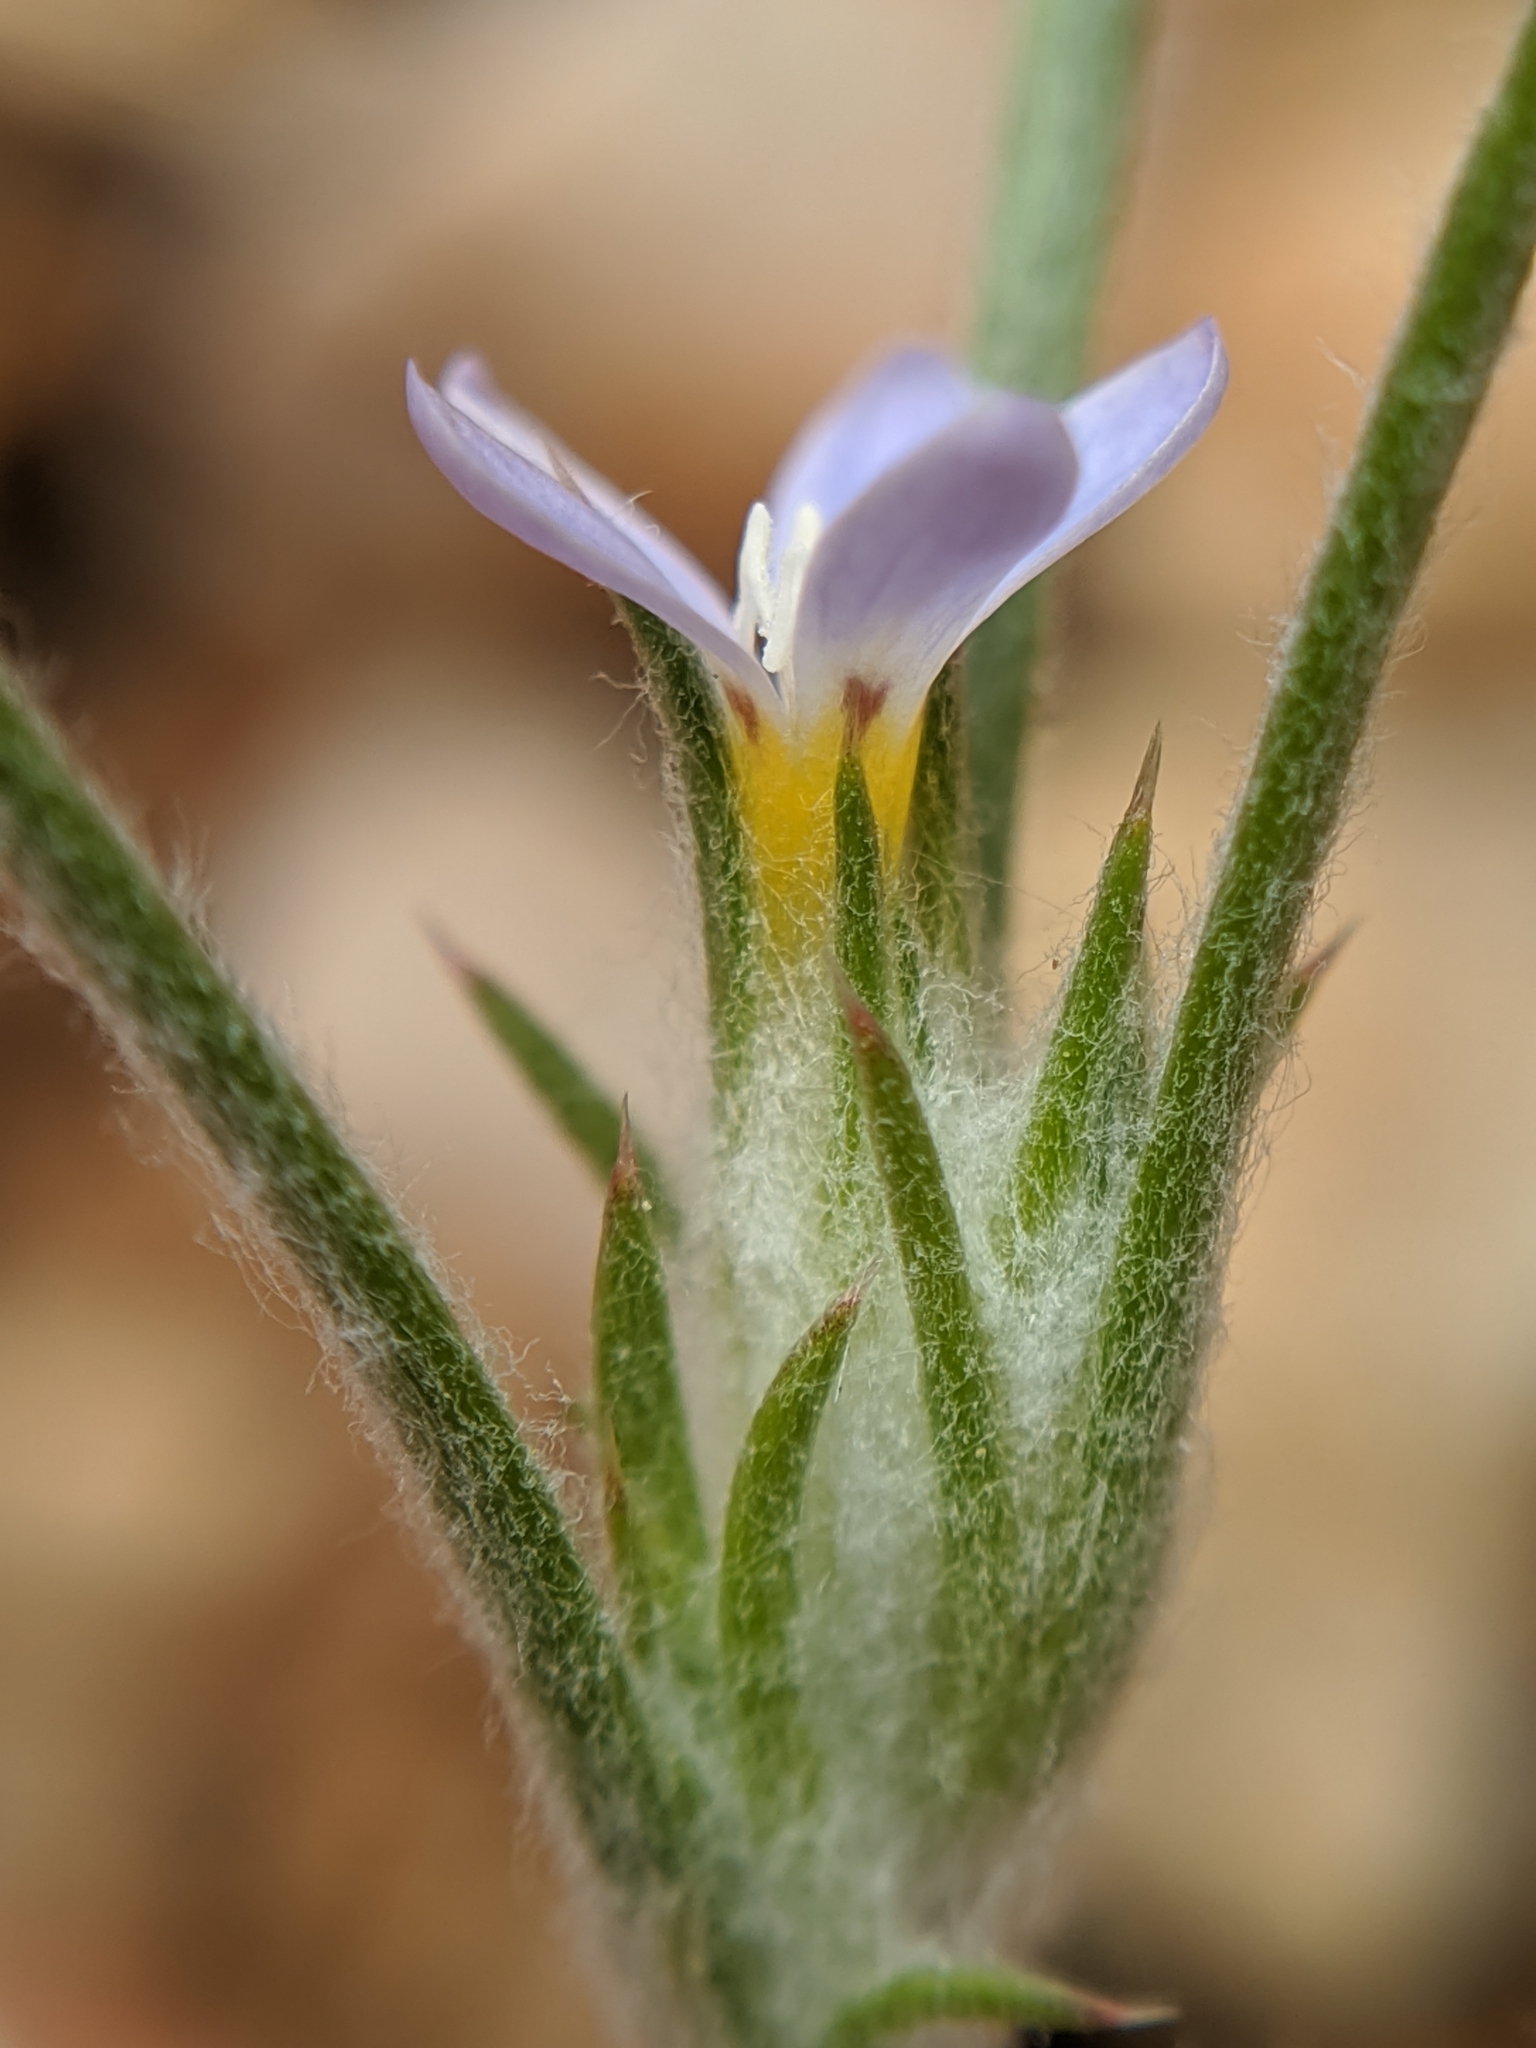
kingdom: Plantae
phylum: Tracheophyta
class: Magnoliopsida
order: Ericales
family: Polemoniaceae
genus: Eriastrum
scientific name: Eriastrum signatum
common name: Great basin woollystar
